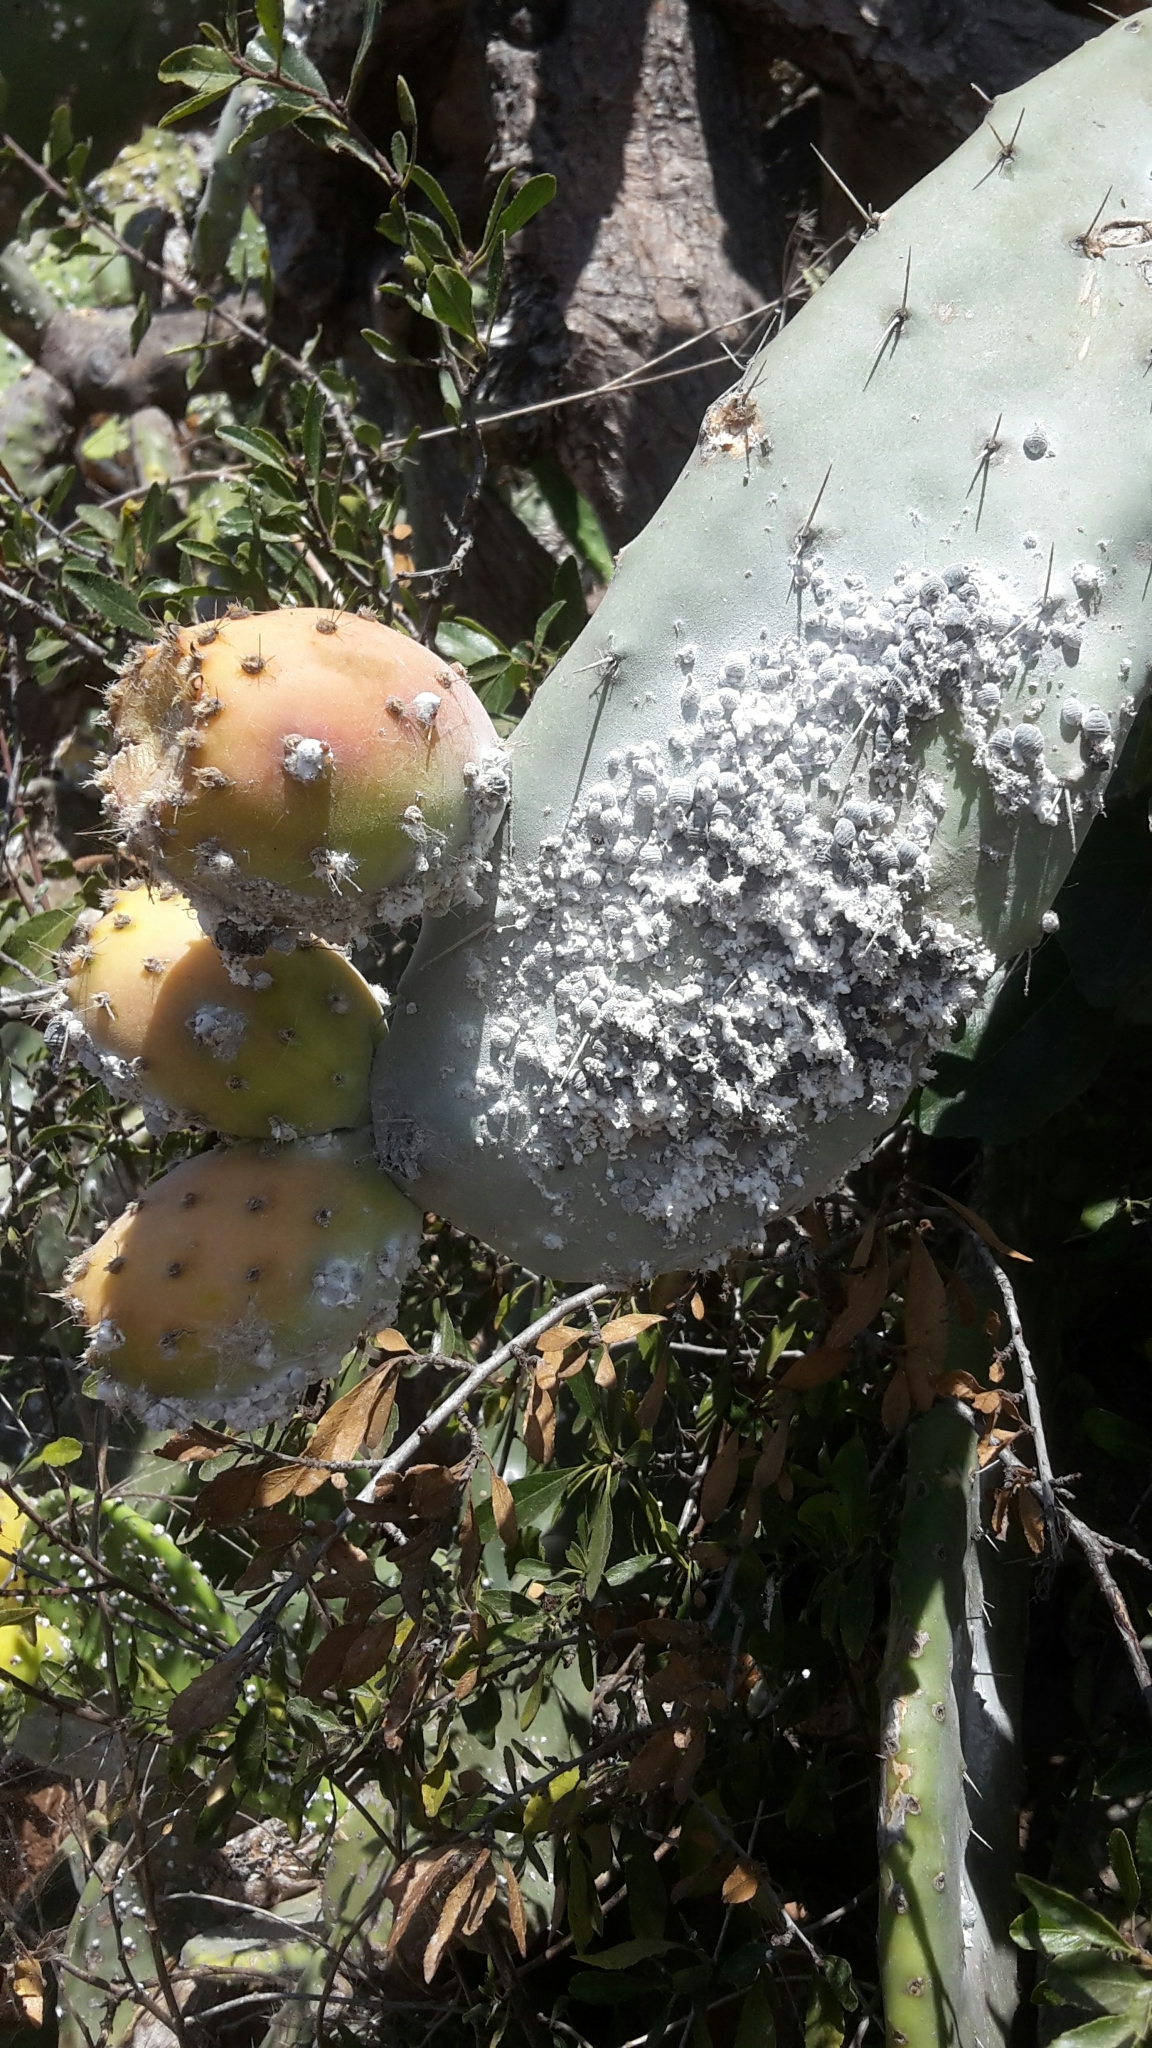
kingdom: Animalia
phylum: Arthropoda
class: Insecta
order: Hemiptera
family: Dactylopiidae
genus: Dactylopius
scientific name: Dactylopius coccus
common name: Cochineal
